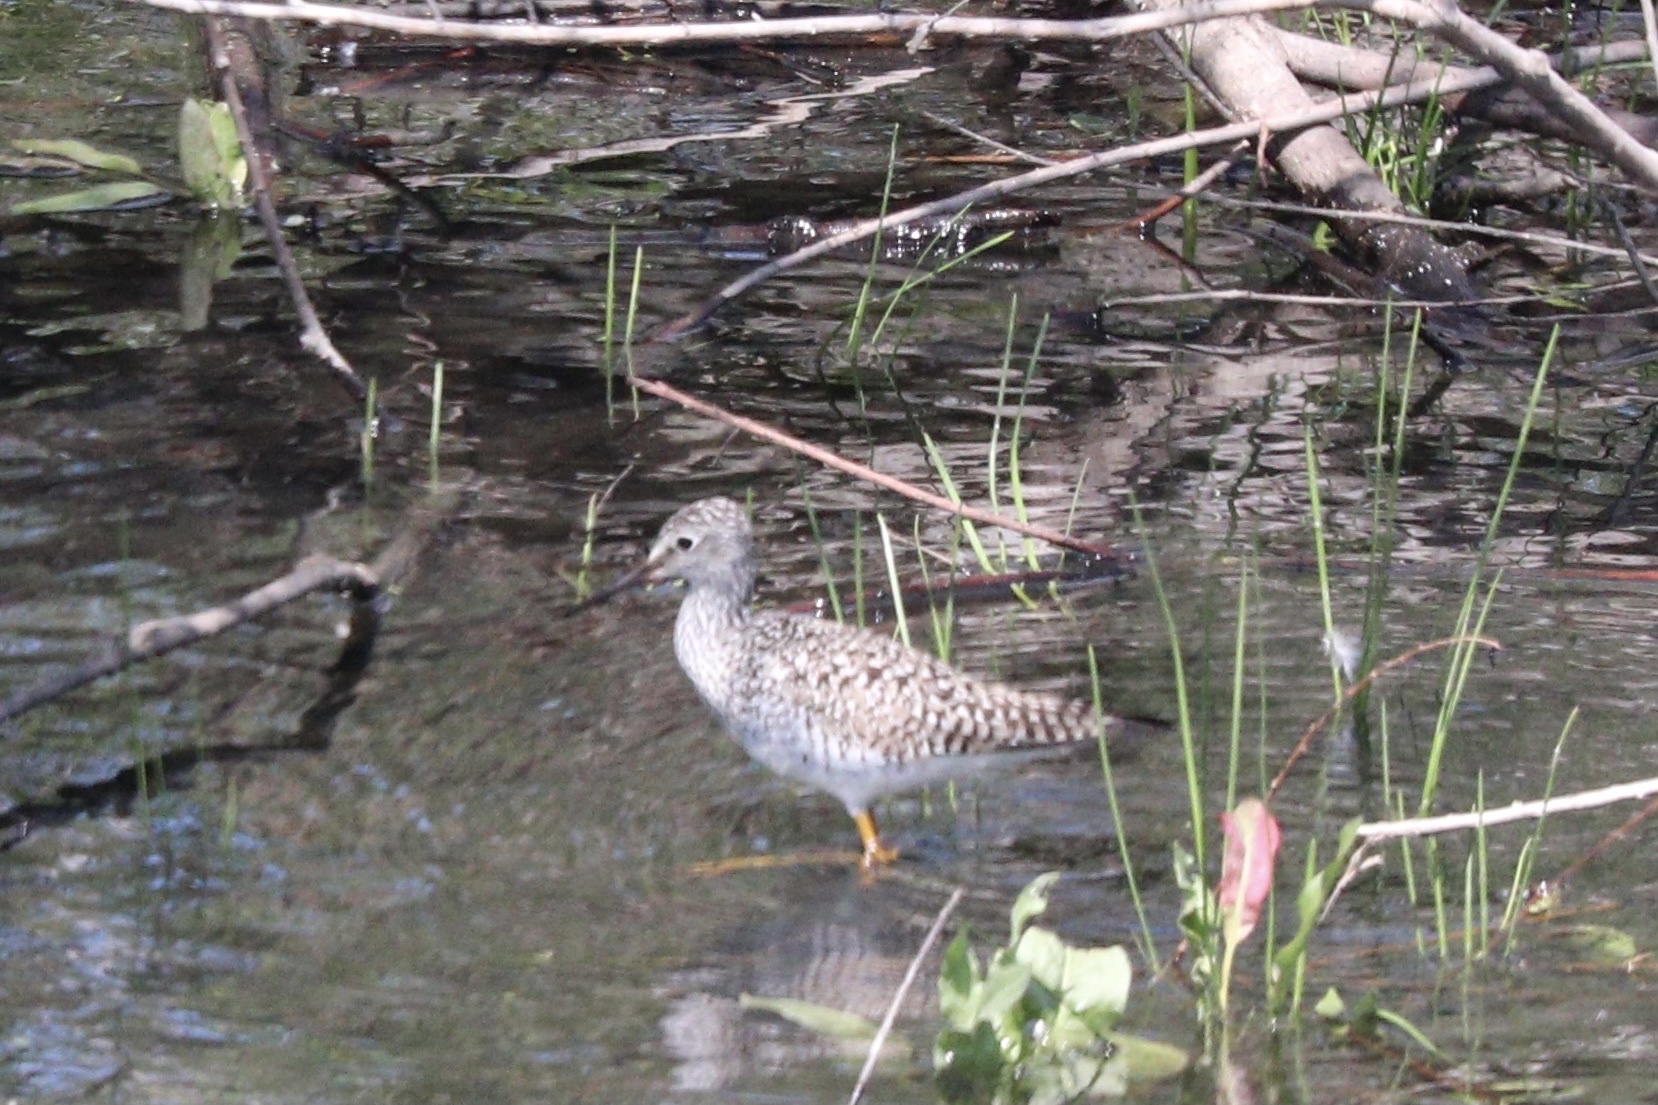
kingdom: Animalia
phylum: Chordata
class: Aves
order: Charadriiformes
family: Scolopacidae
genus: Tringa
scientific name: Tringa flavipes
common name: Lesser yellowlegs
